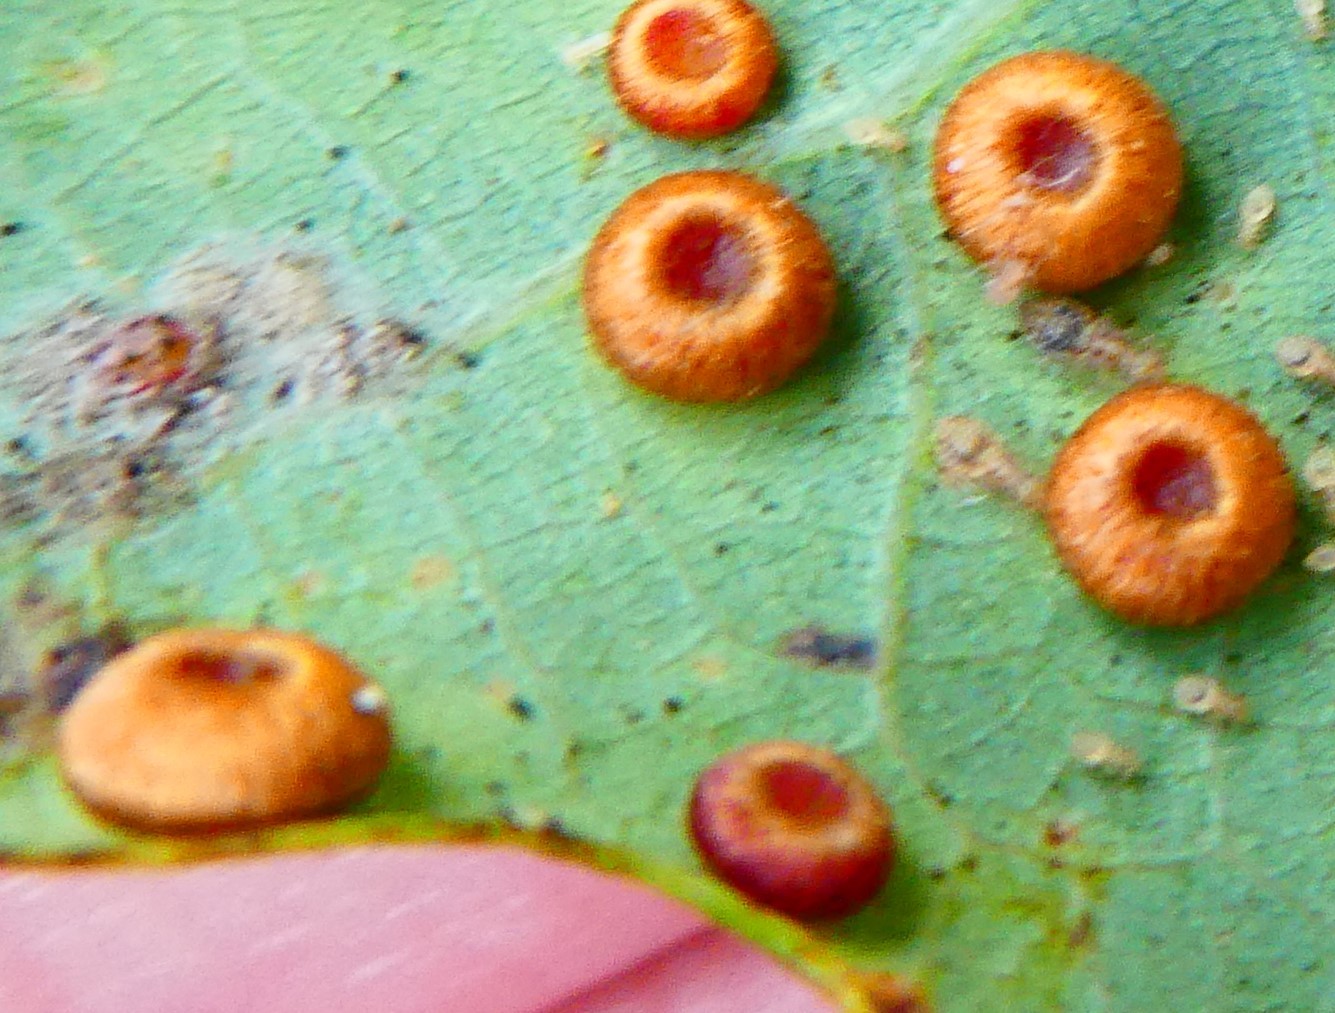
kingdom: Animalia
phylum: Arthropoda
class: Insecta
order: Hymenoptera
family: Cynipidae
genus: Neuroterus
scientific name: Neuroterus numismalis
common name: Silk-button spangle gall
